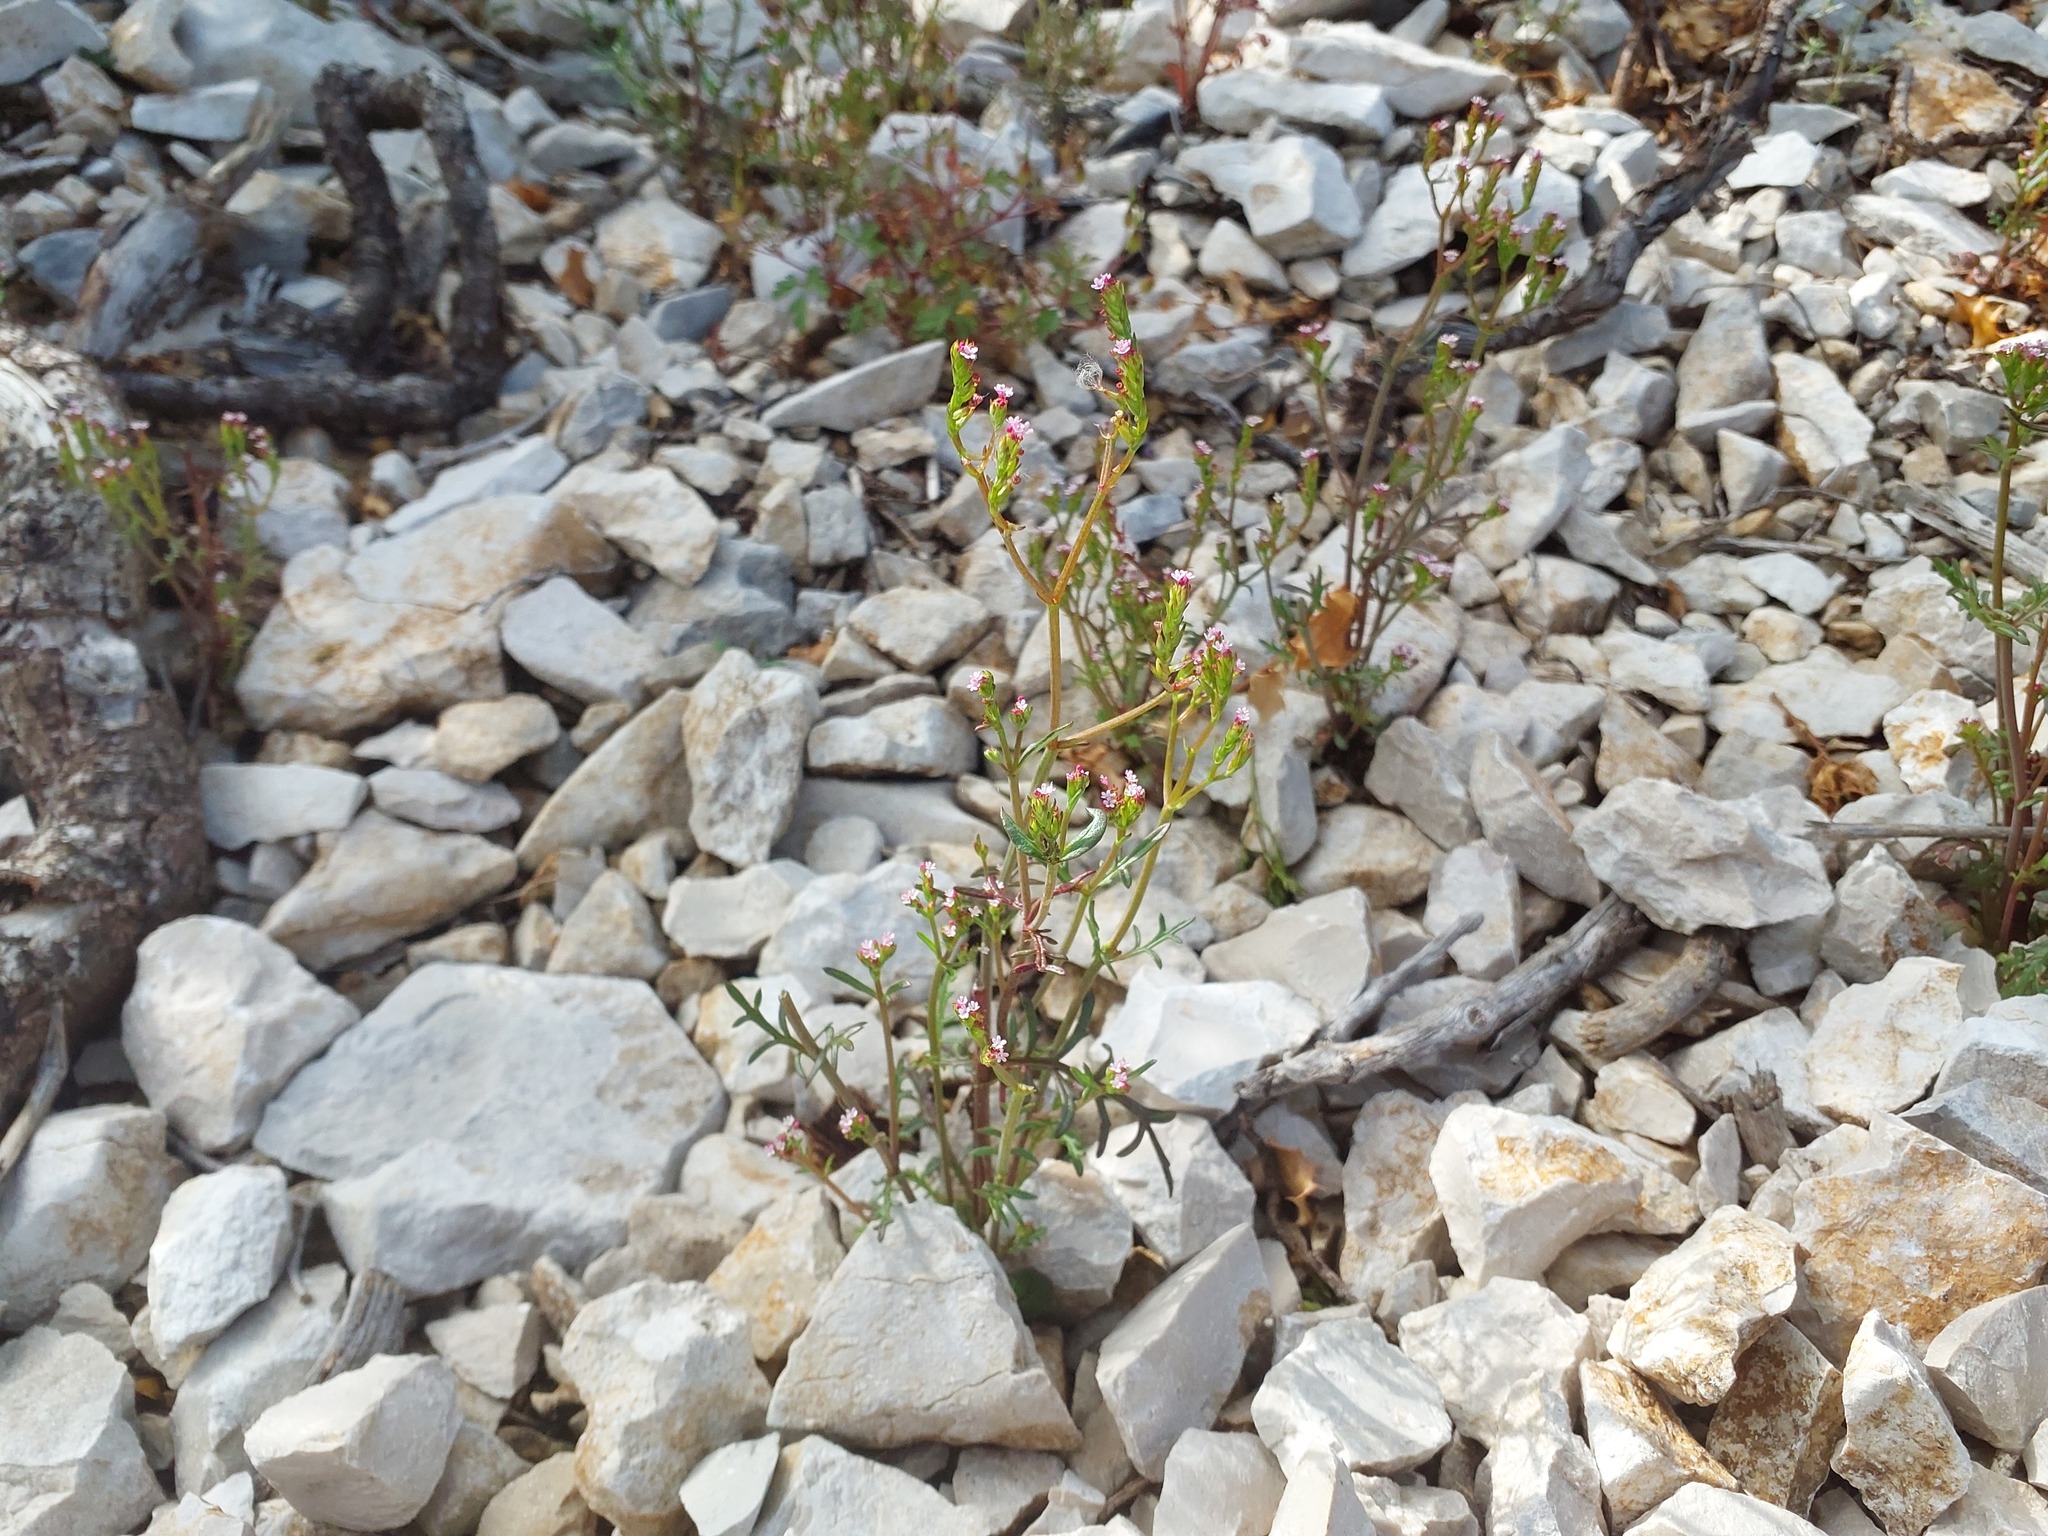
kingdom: Plantae
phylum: Tracheophyta
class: Magnoliopsida
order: Dipsacales
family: Caprifoliaceae
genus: Centranthus
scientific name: Centranthus calcitrapae
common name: Annual valerian
